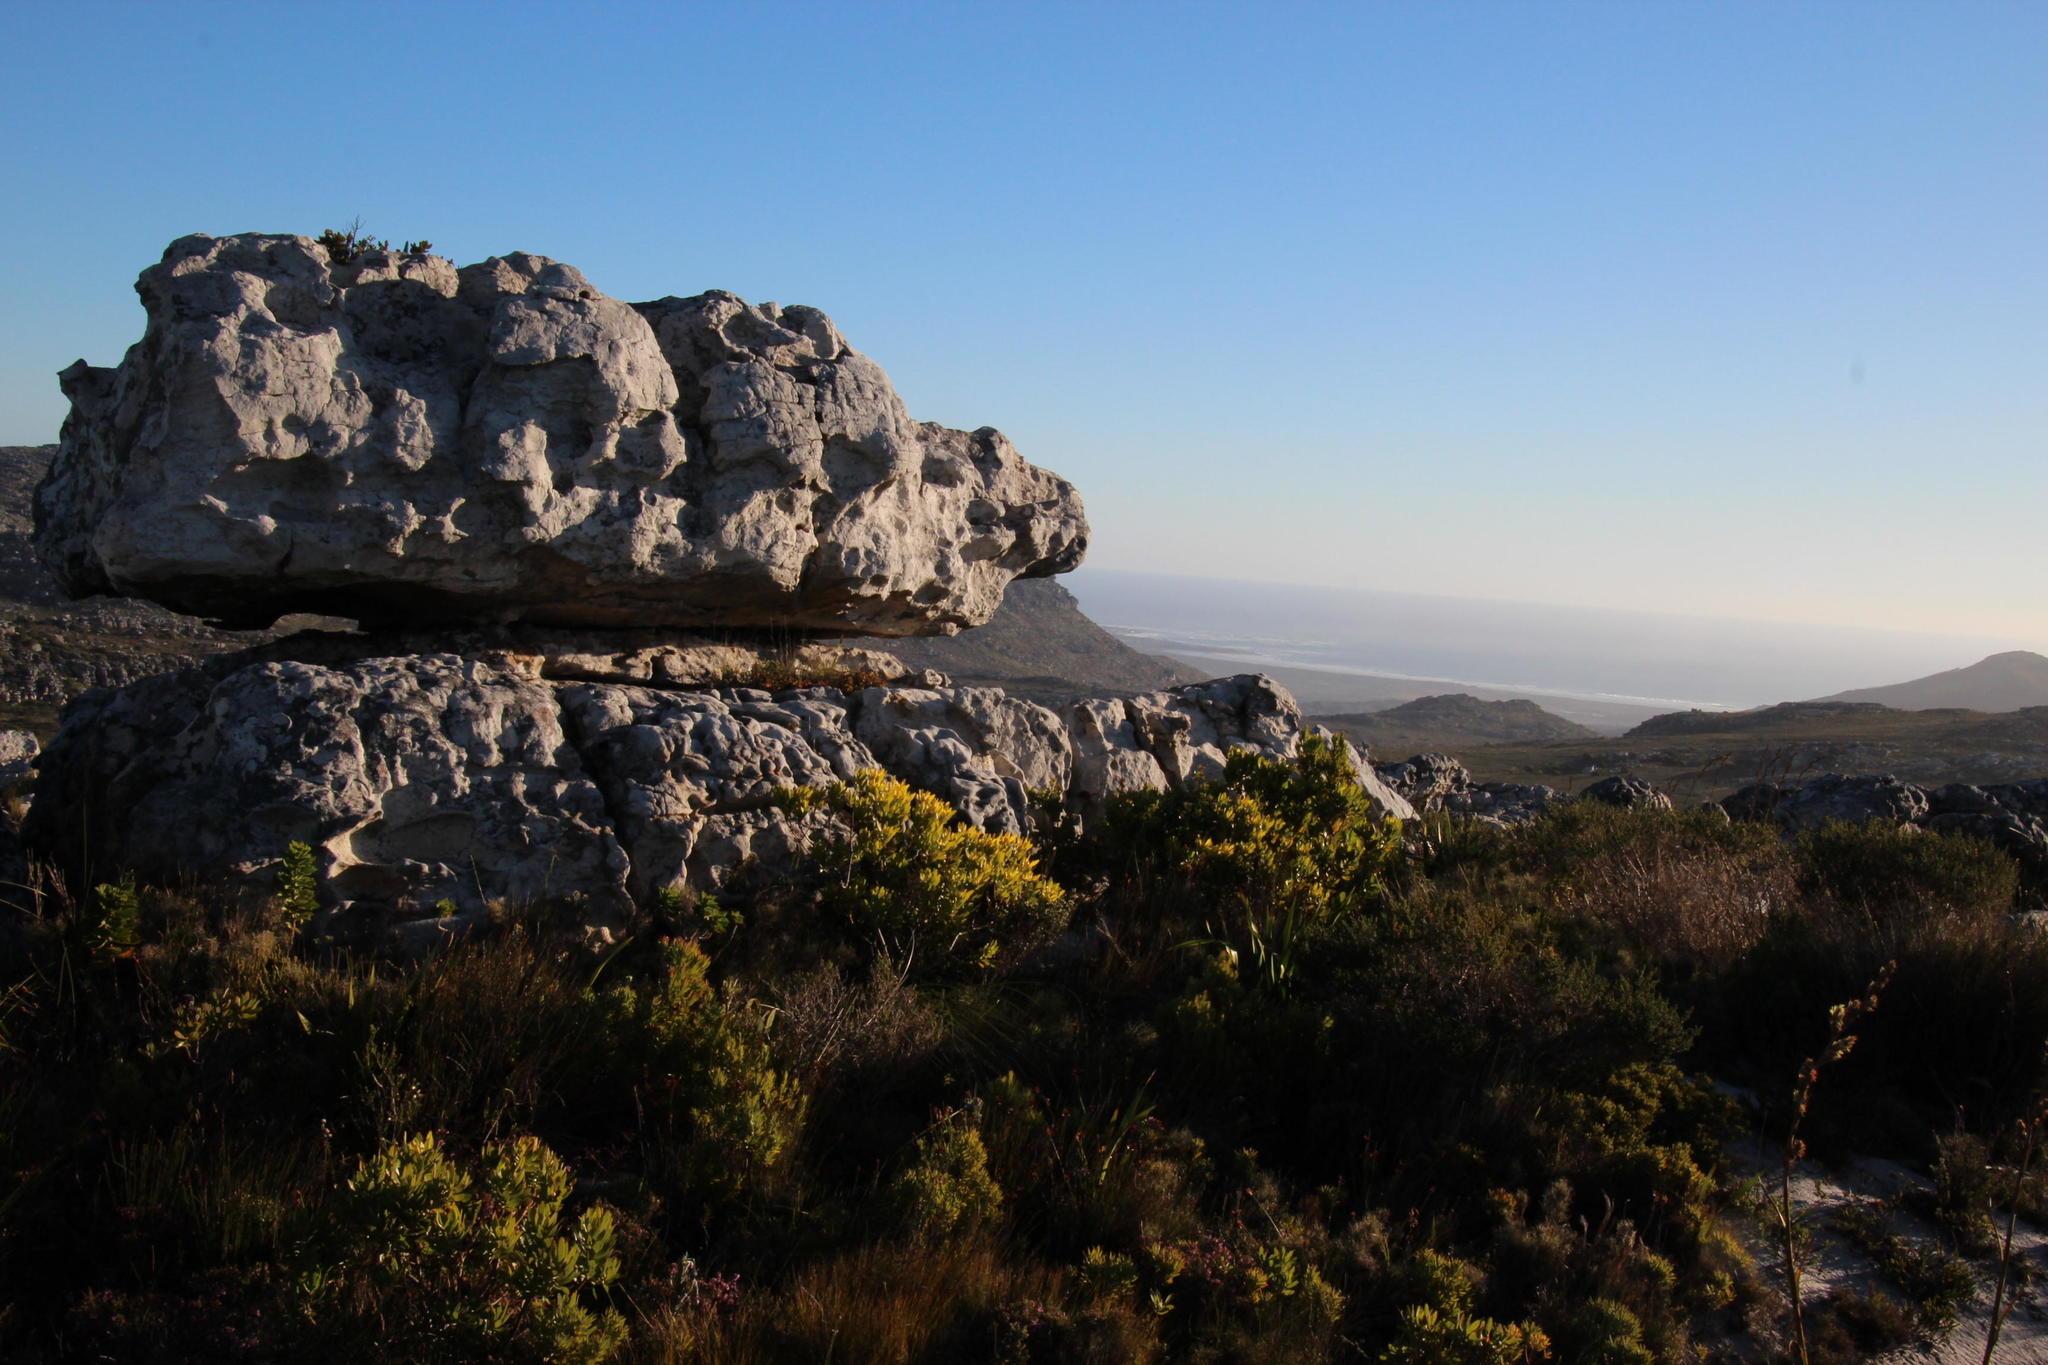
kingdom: Plantae
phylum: Tracheophyta
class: Magnoliopsida
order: Proteales
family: Proteaceae
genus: Leucadendron
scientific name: Leucadendron laureolum
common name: Golden sunshinebush
